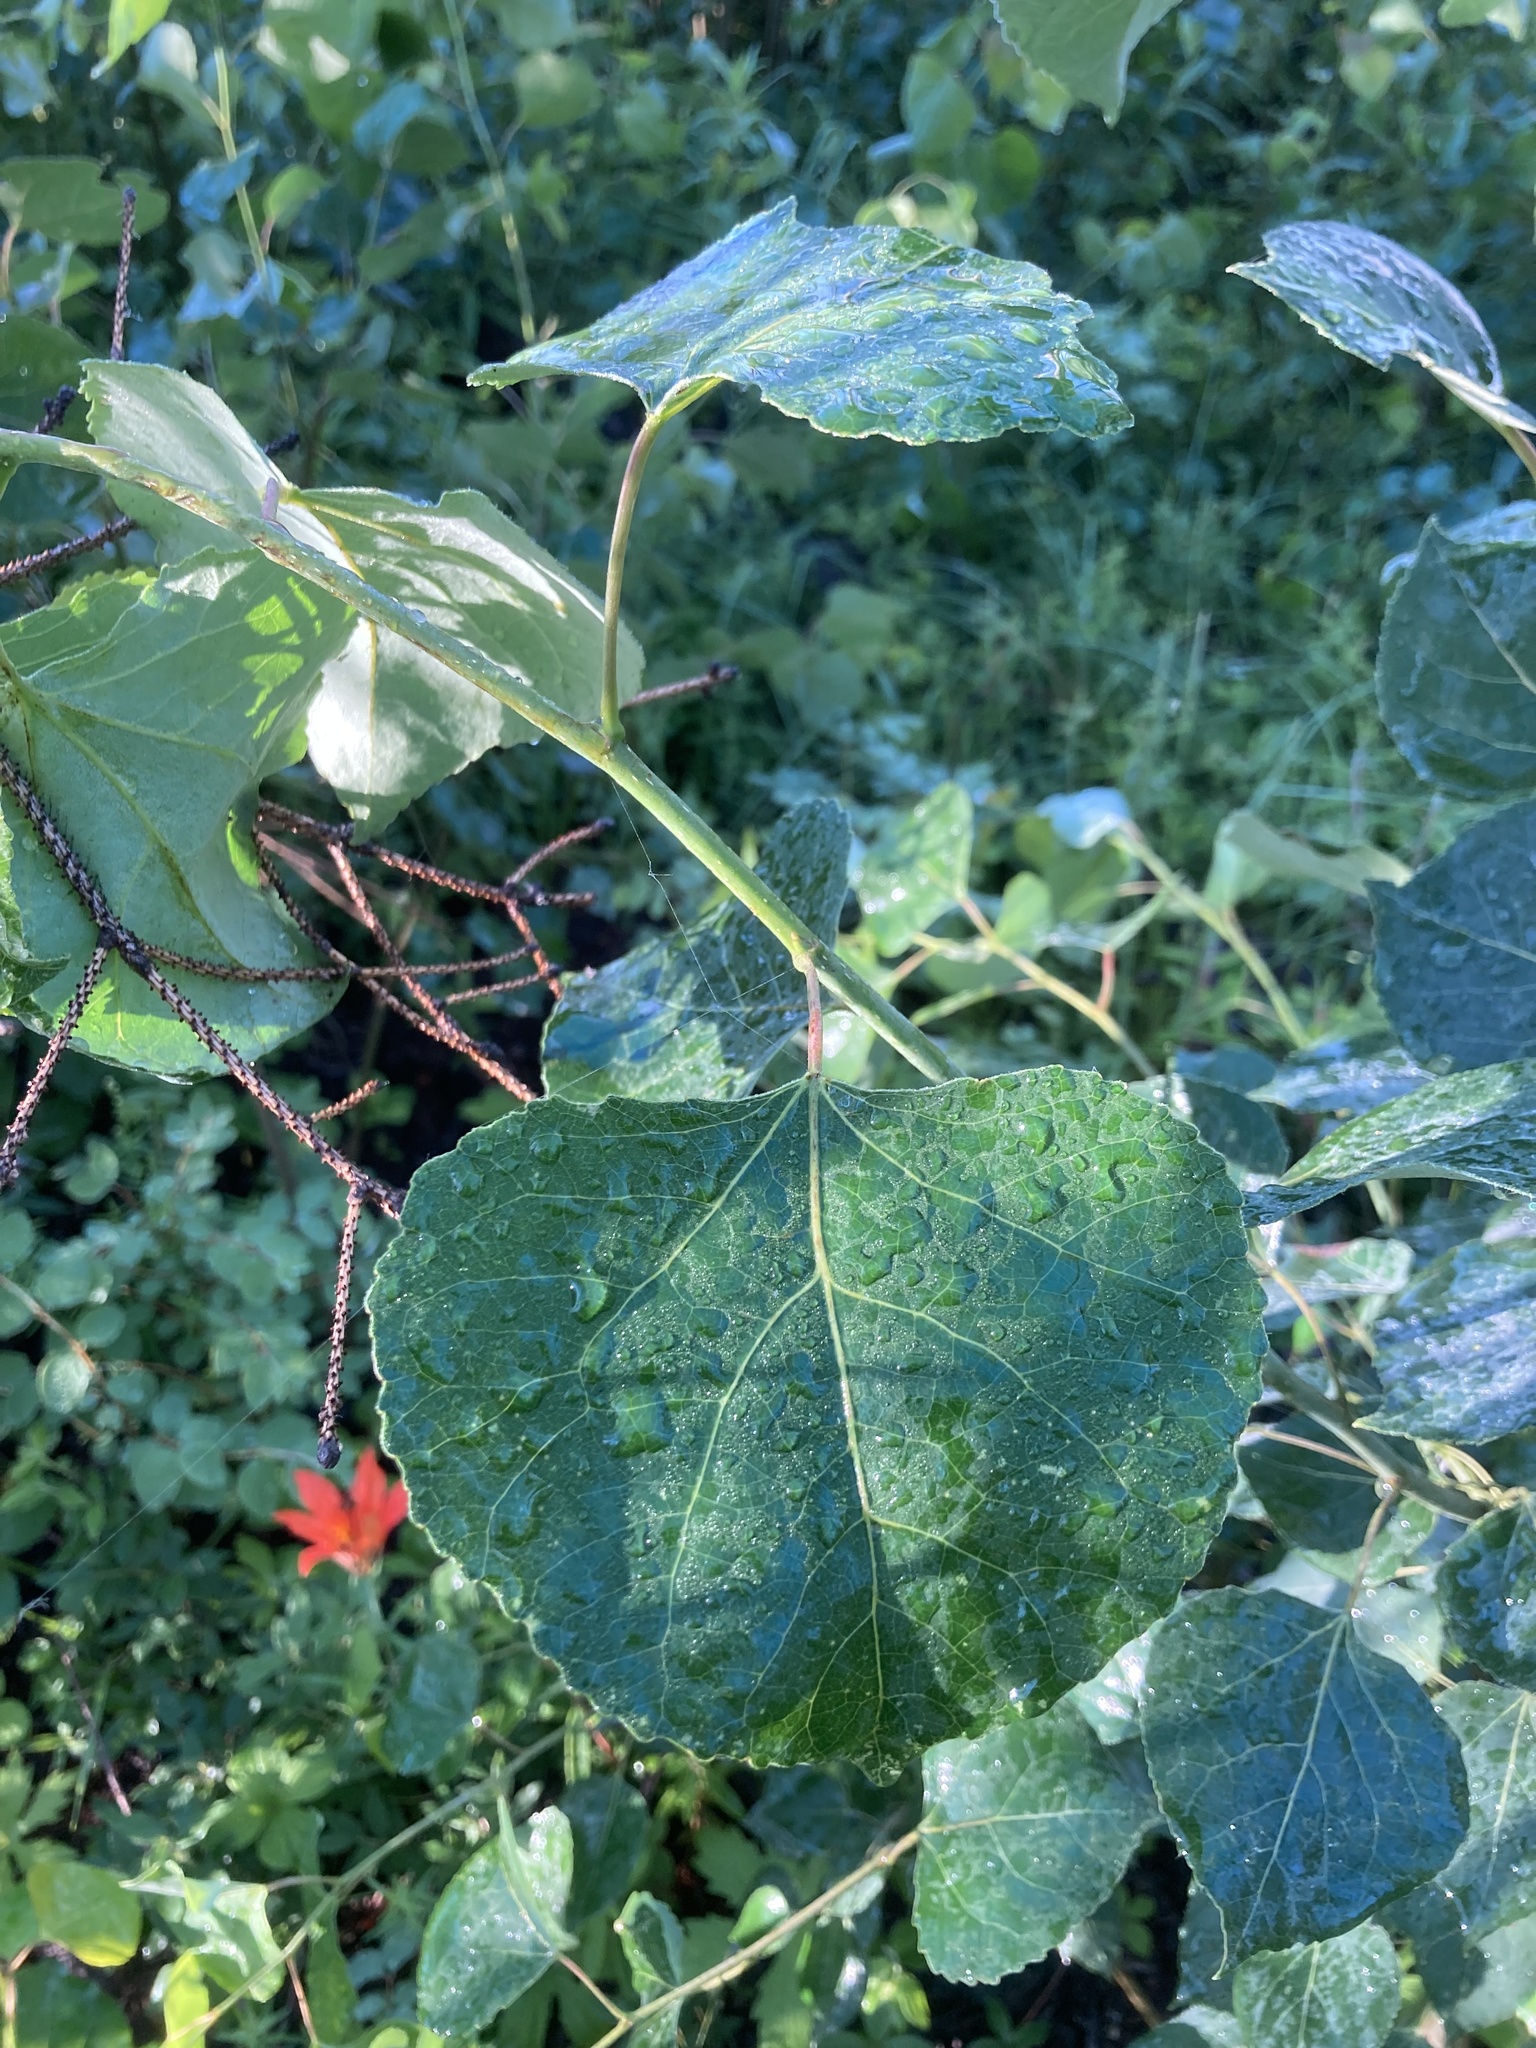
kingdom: Plantae
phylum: Tracheophyta
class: Magnoliopsida
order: Malpighiales
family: Salicaceae
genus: Populus
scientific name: Populus tremuloides
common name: Quaking aspen
